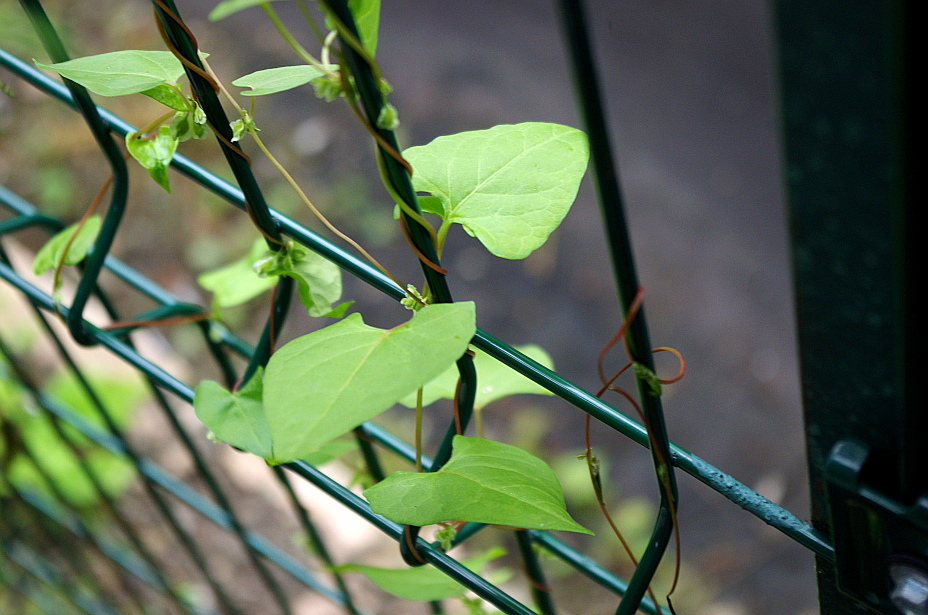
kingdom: Plantae
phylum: Tracheophyta
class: Magnoliopsida
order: Caryophyllales
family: Polygonaceae
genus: Fallopia
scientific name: Fallopia dumetorum
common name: Copse-bindweed
